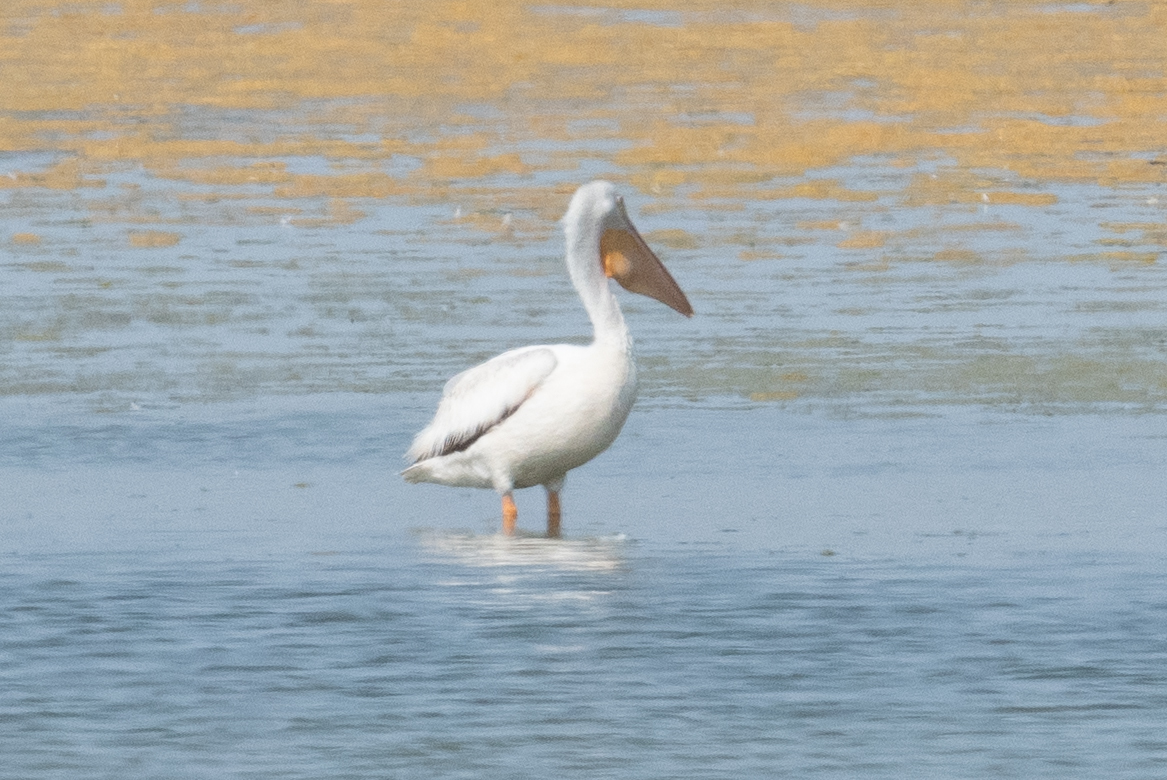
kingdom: Animalia
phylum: Chordata
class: Aves
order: Pelecaniformes
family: Pelecanidae
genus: Pelecanus
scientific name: Pelecanus erythrorhynchos
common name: American white pelican
